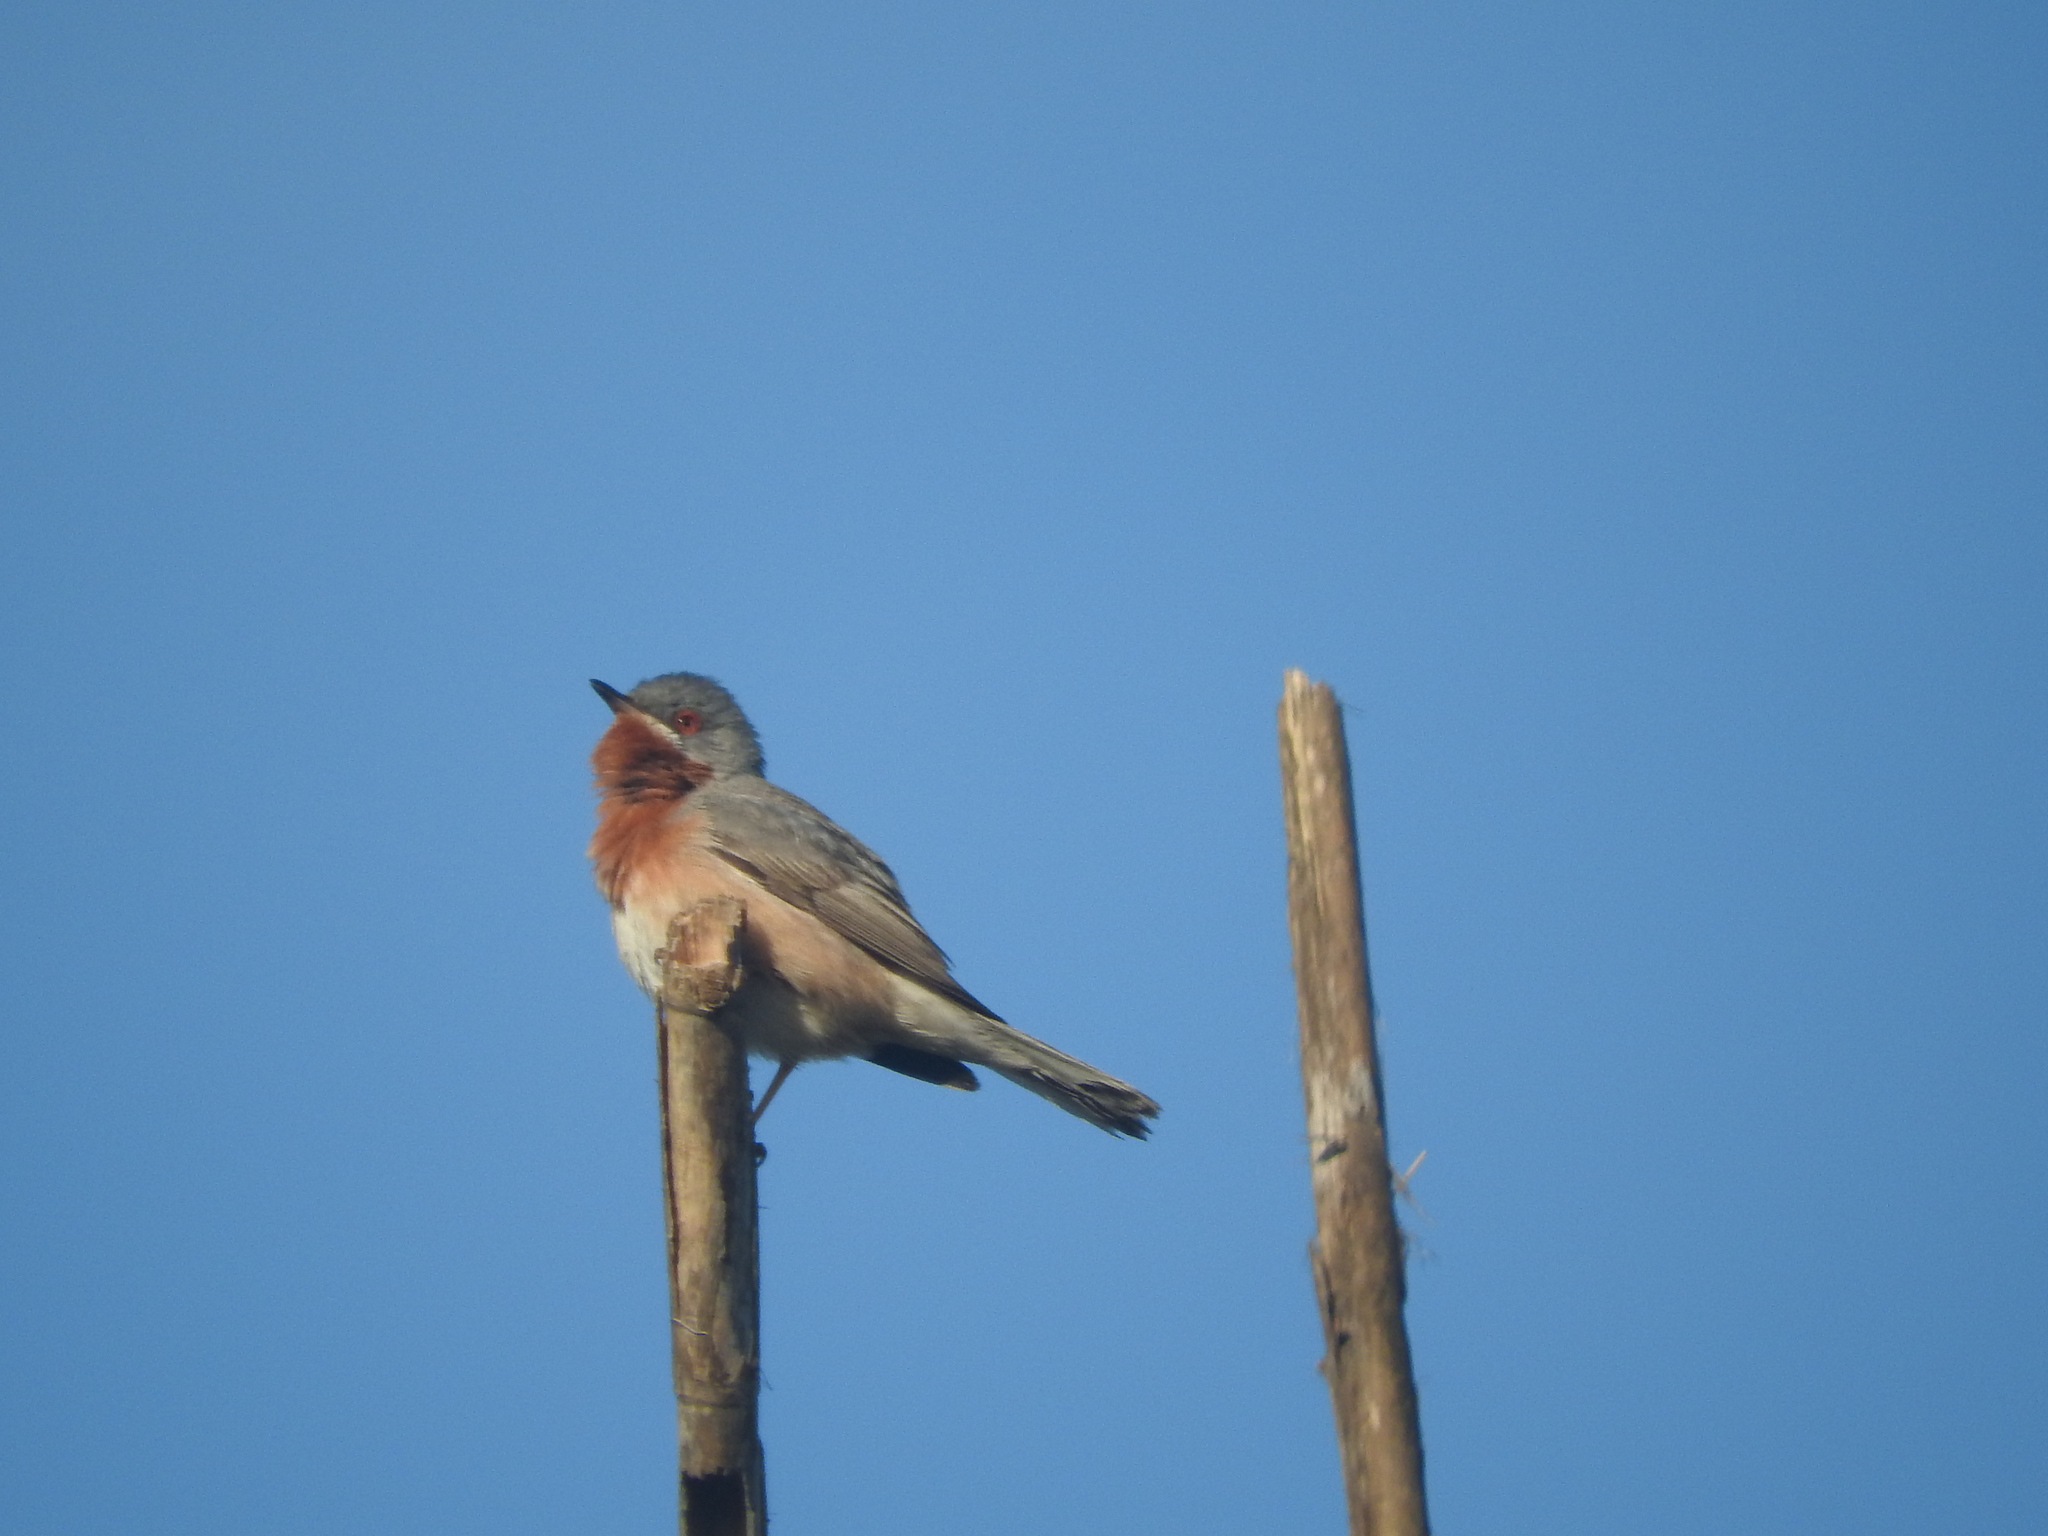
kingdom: Animalia
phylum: Chordata
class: Aves
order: Passeriformes
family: Sylviidae
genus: Curruca
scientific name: Curruca cantillans
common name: Subalpine warbler
